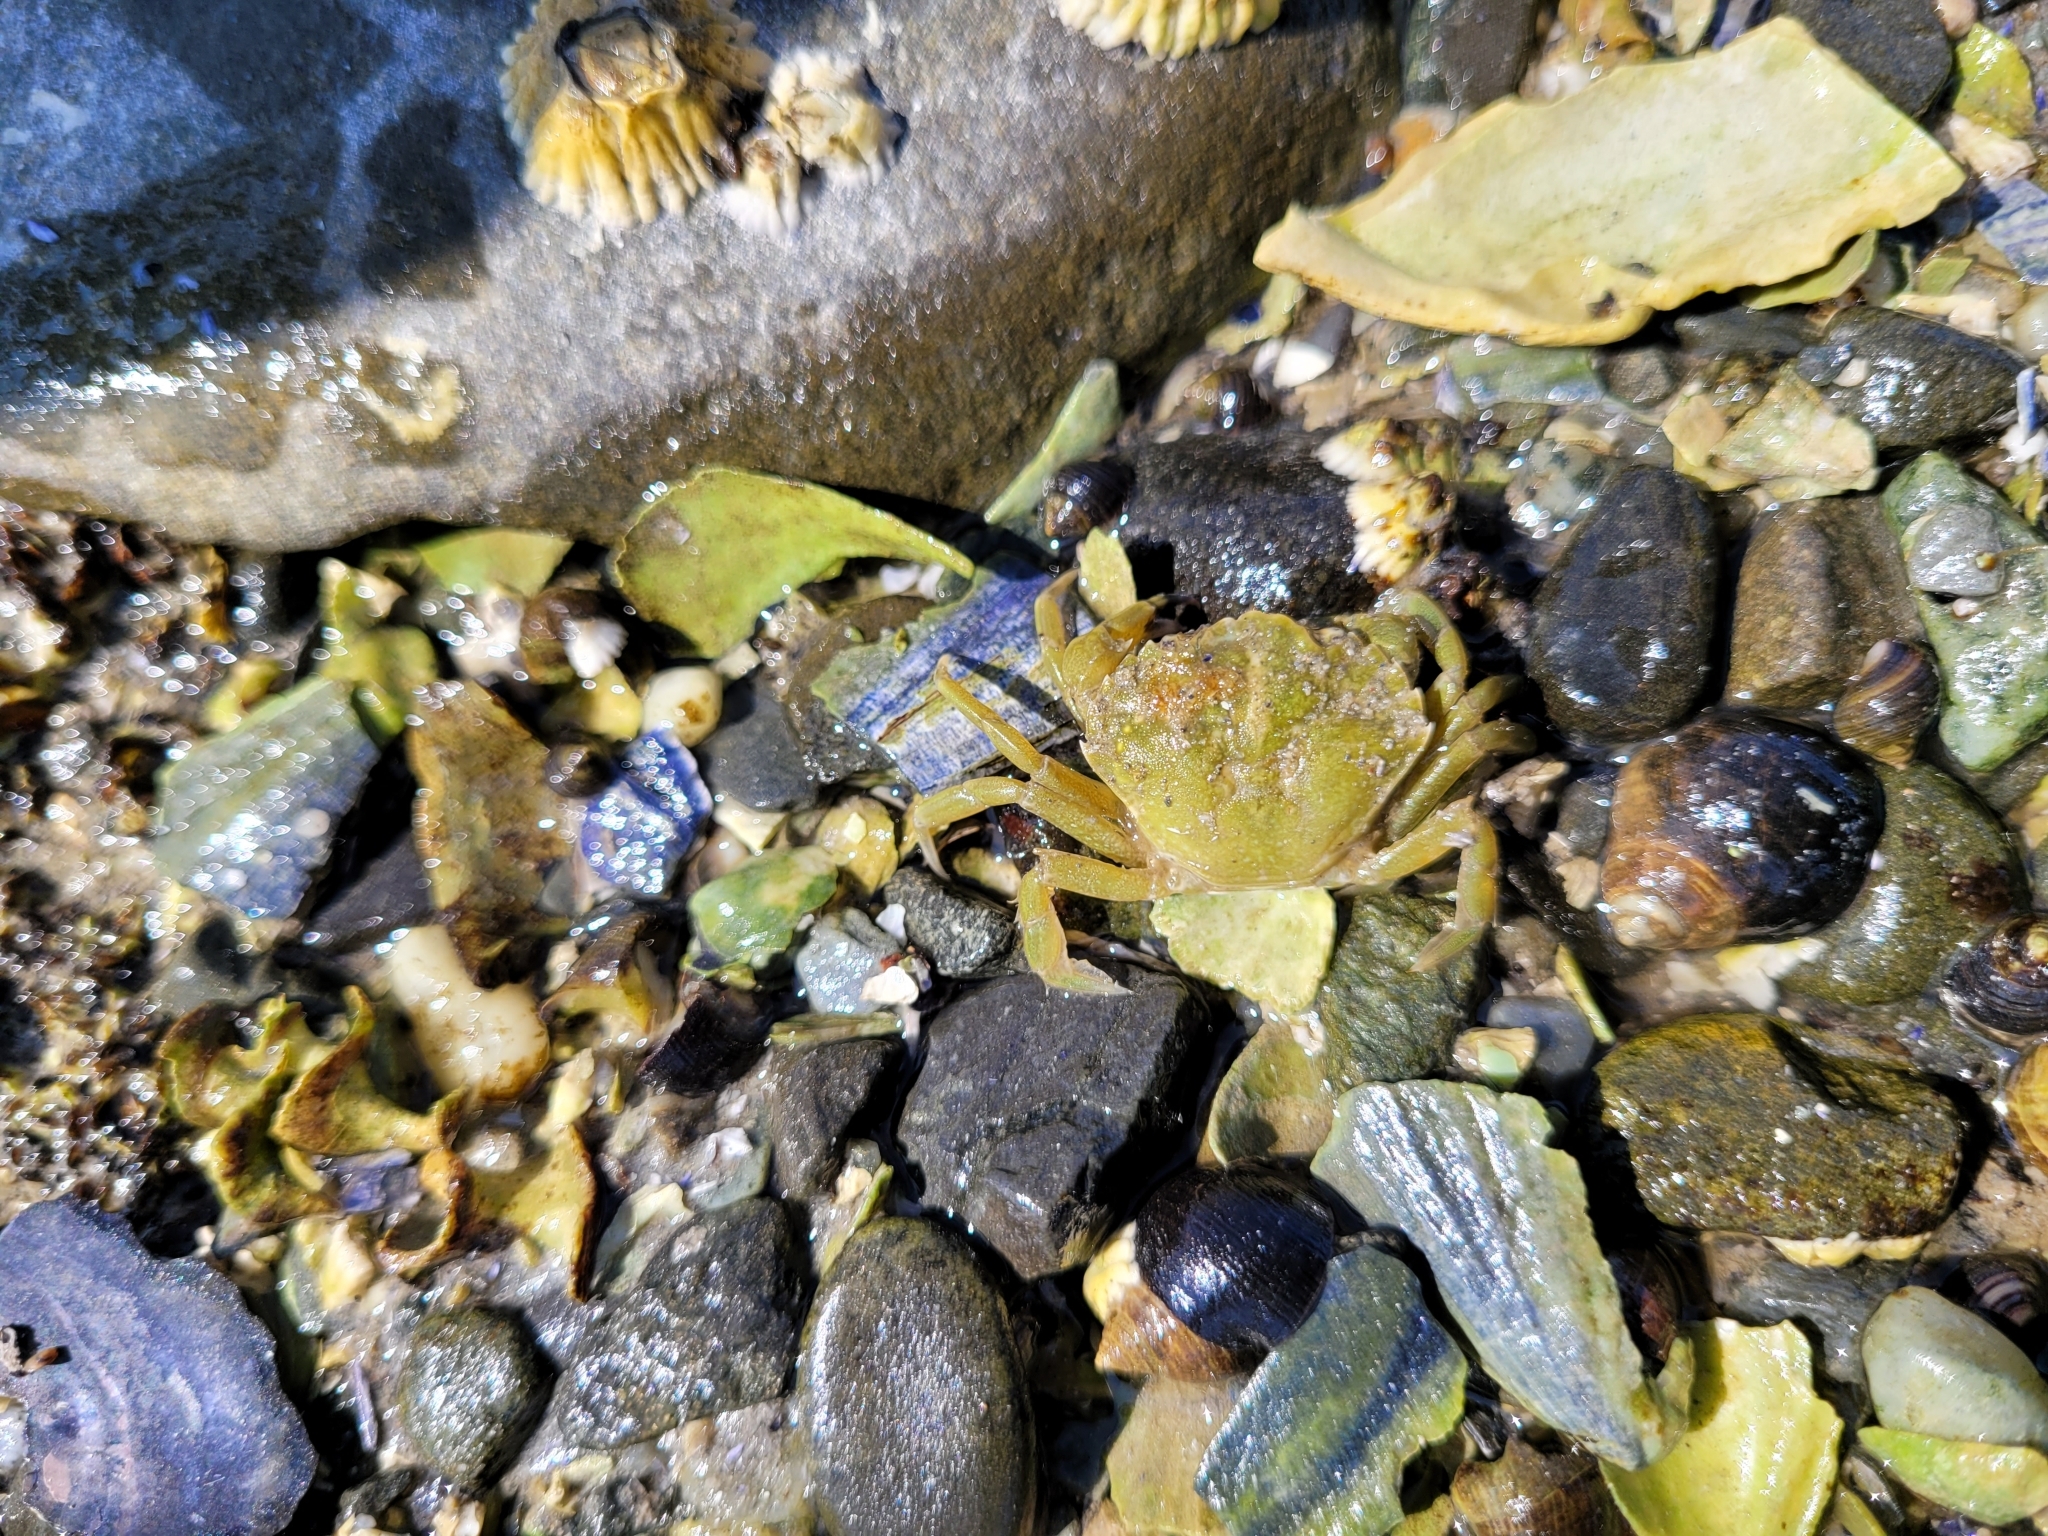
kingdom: Animalia
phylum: Arthropoda
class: Malacostraca
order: Decapoda
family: Carcinidae
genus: Carcinus
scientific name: Carcinus maenas
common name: European green crab
